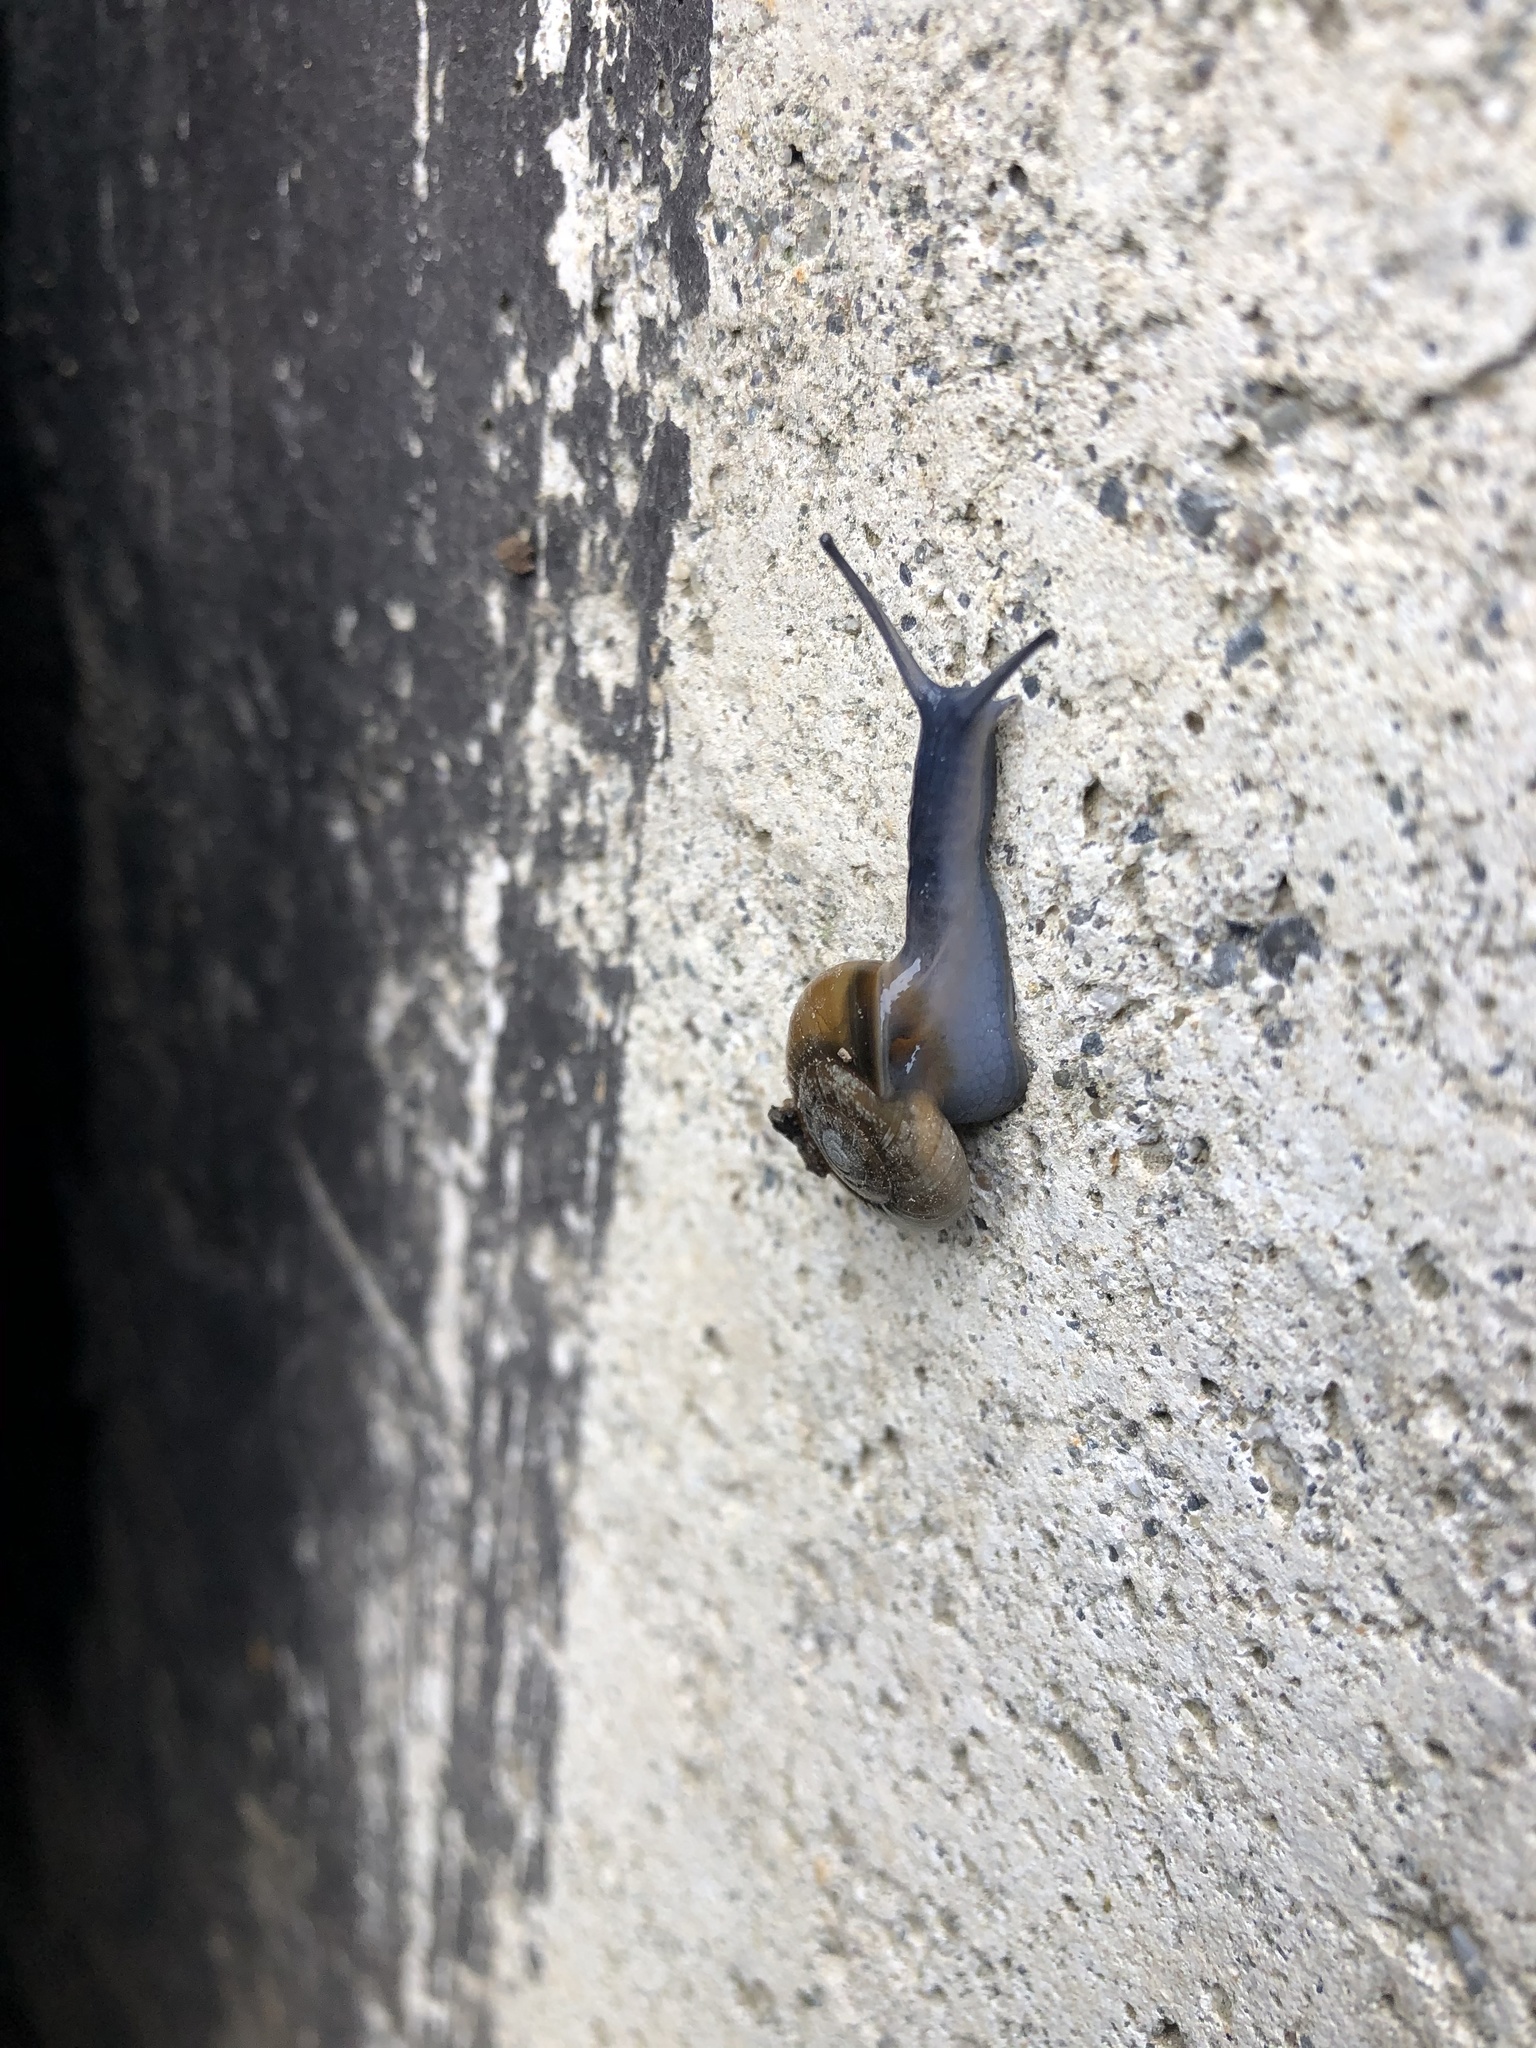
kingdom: Animalia
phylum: Mollusca
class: Gastropoda
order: Stylommatophora
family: Oxychilidae
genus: Oxychilus
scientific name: Oxychilus draparnaudi
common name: Draparnaud's glass snail
